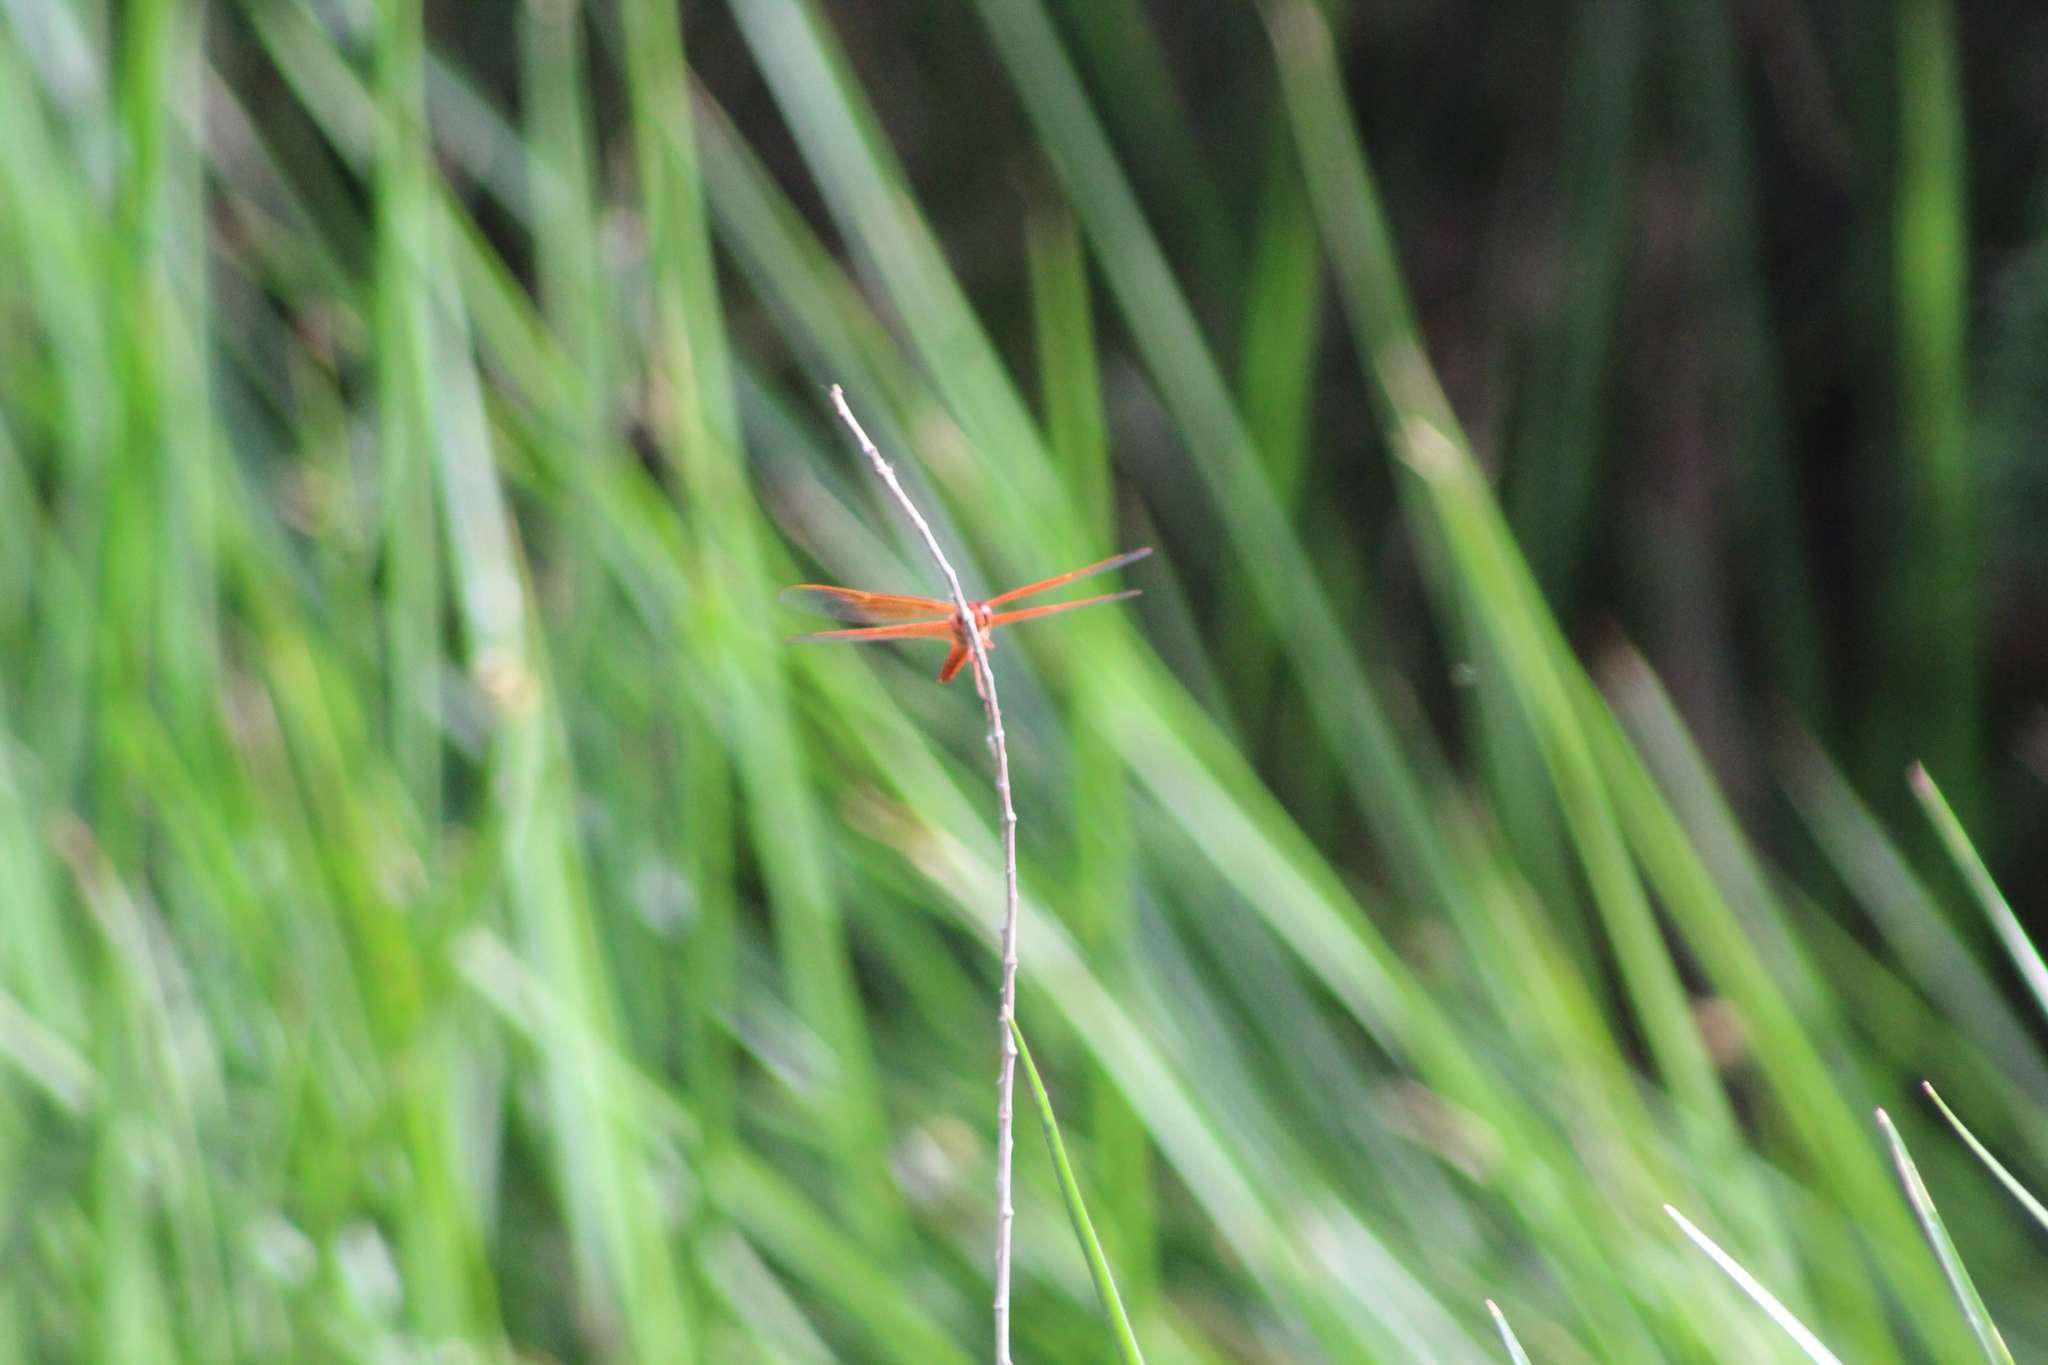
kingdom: Animalia
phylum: Arthropoda
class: Insecta
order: Odonata
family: Libellulidae
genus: Libellula
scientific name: Libellula saturata
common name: Flame skimmer
